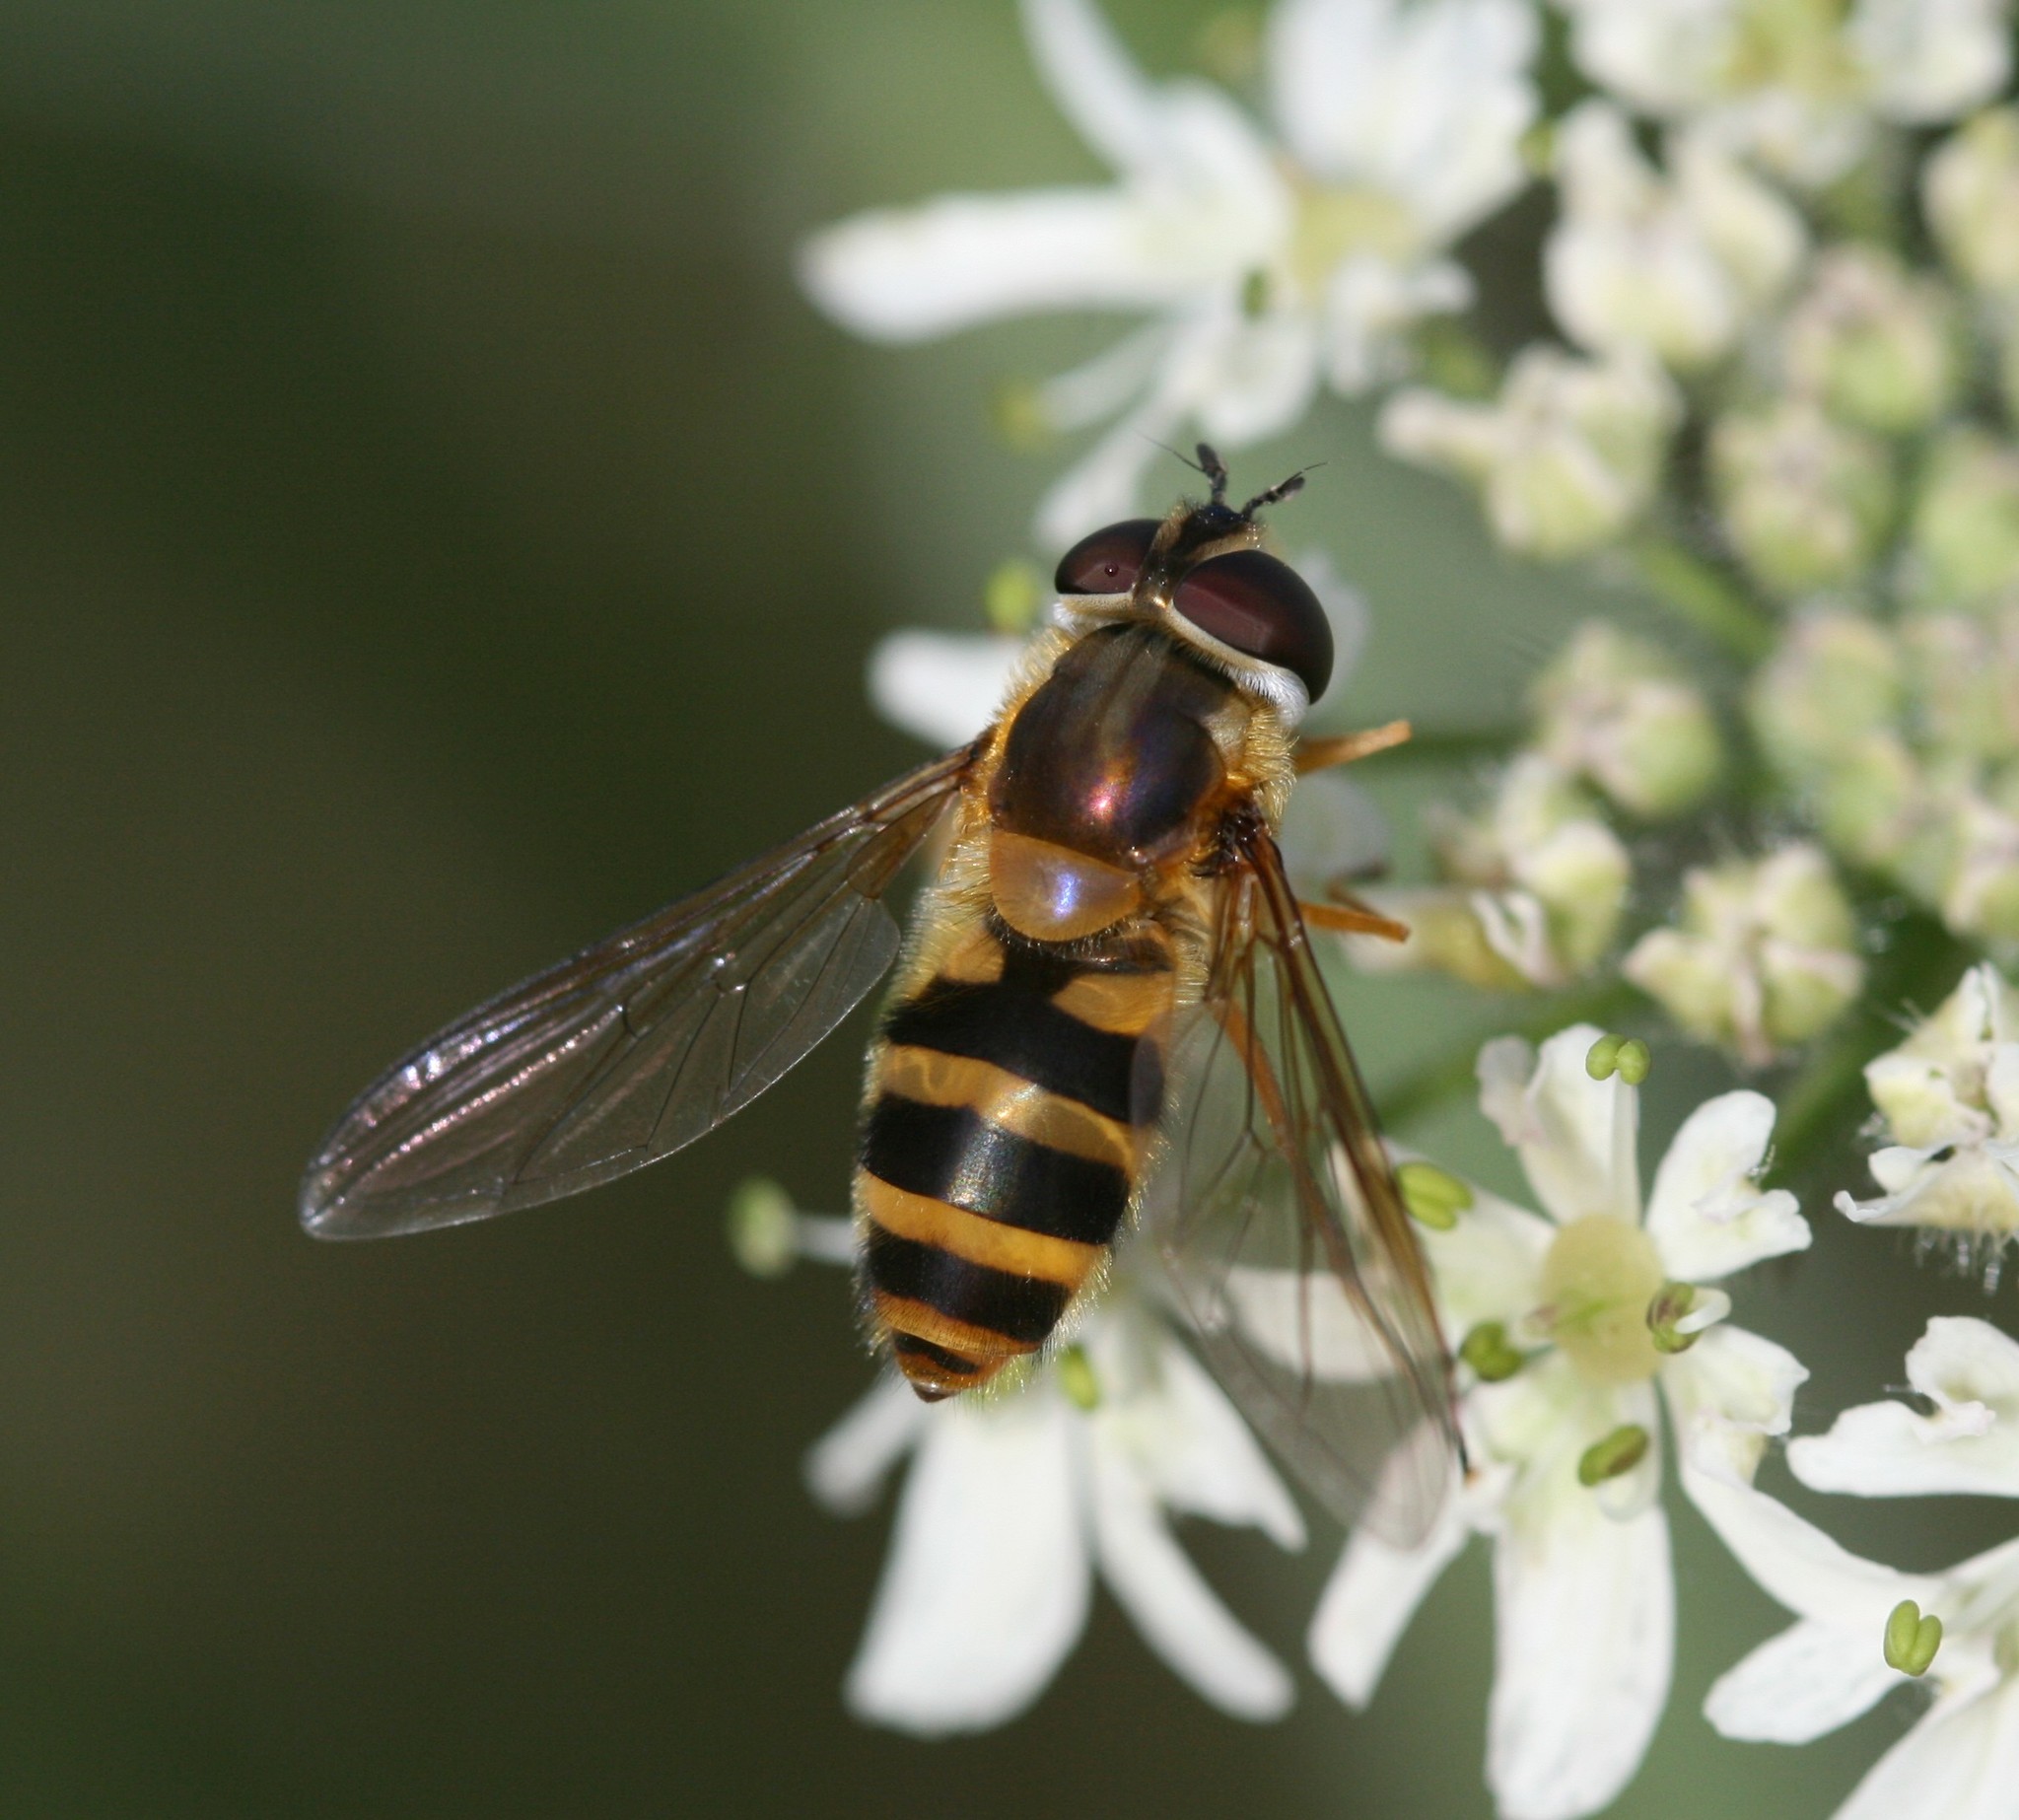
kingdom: Animalia
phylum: Arthropoda
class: Insecta
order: Diptera
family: Syrphidae
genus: Epistrophe
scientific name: Epistrophe grossulariae
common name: Black-horned smoothtail
